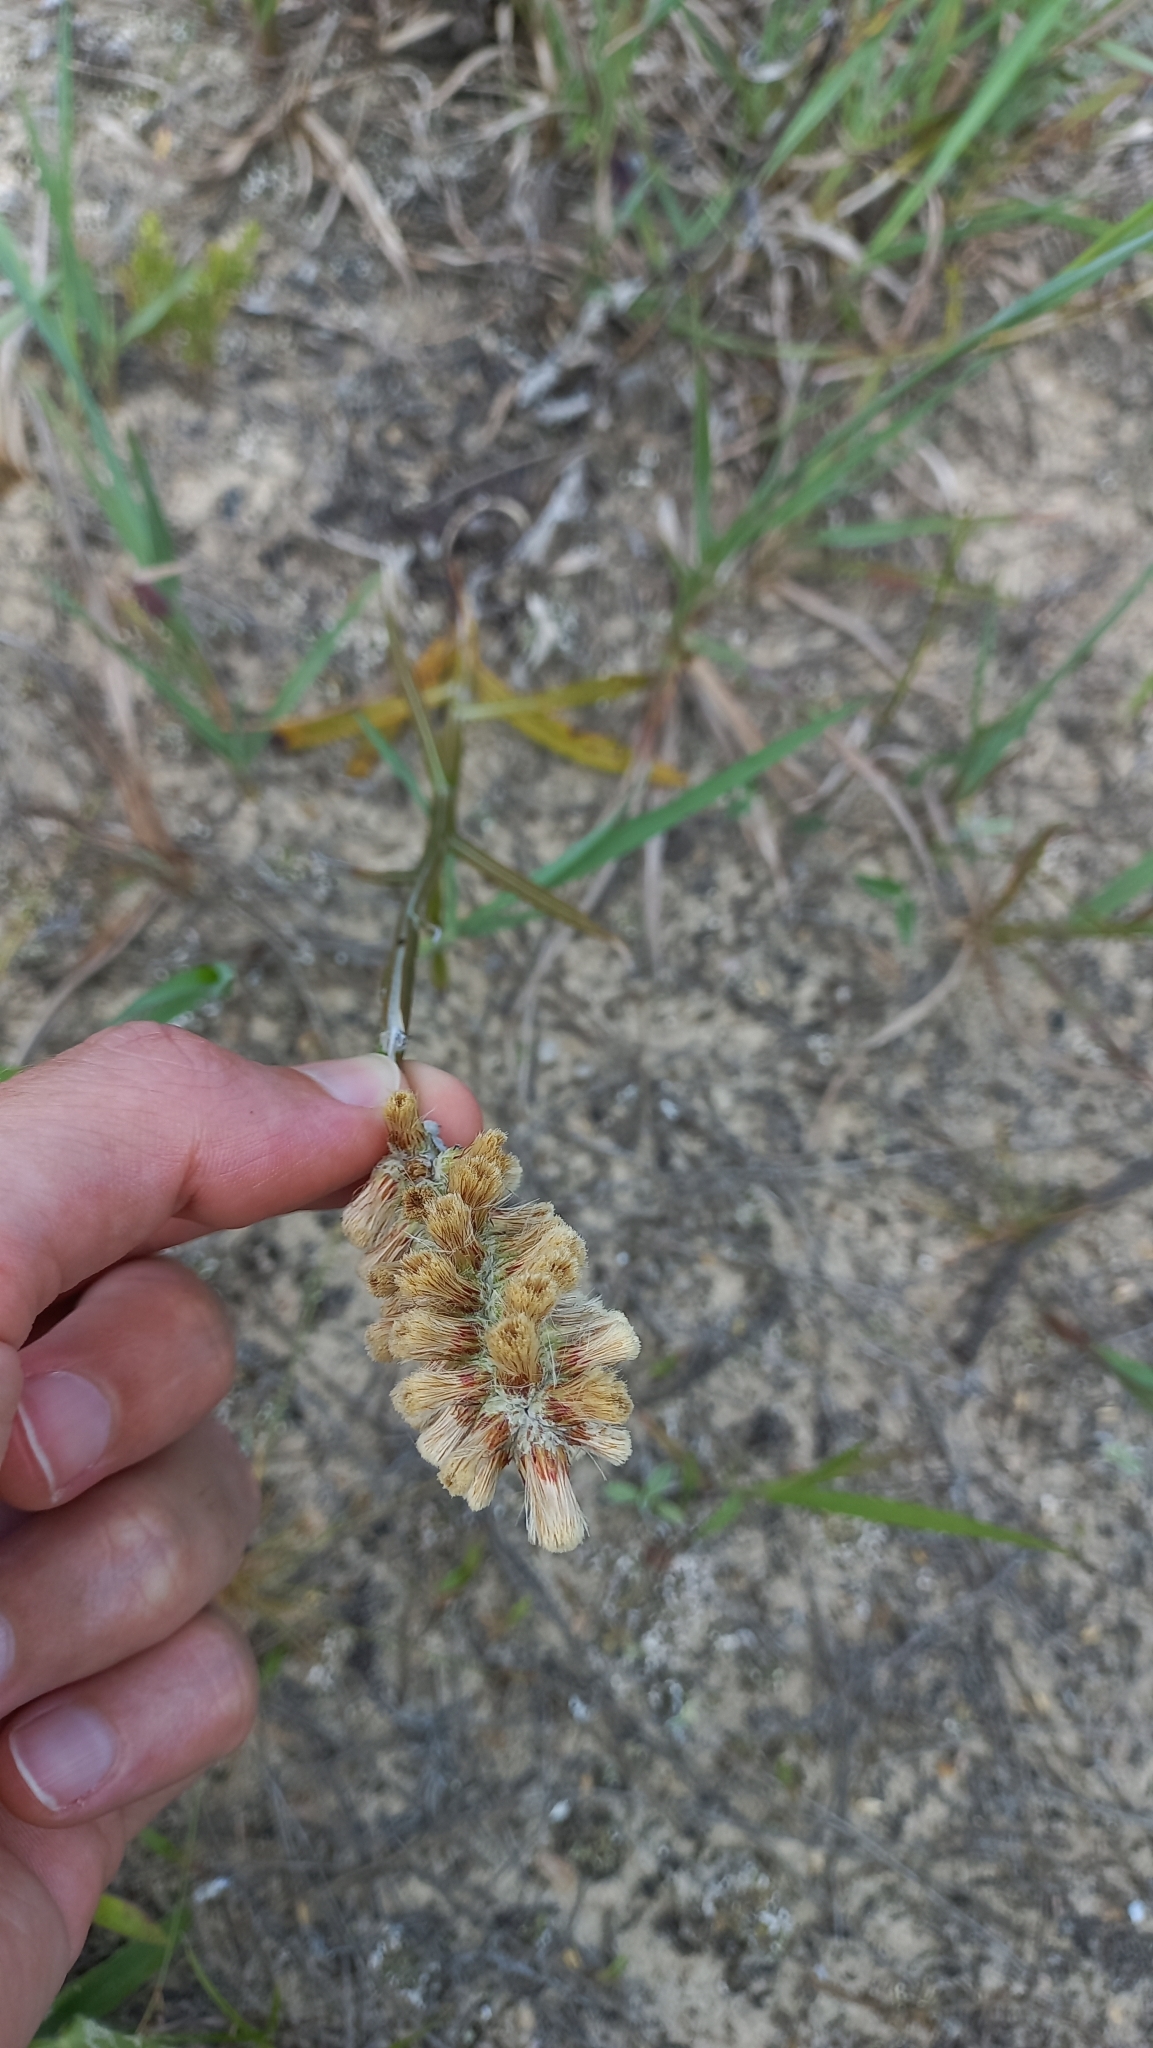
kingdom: Plantae
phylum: Tracheophyta
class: Magnoliopsida
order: Asterales
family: Asteraceae
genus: Pterocaulon
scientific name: Pterocaulon lorentzii
